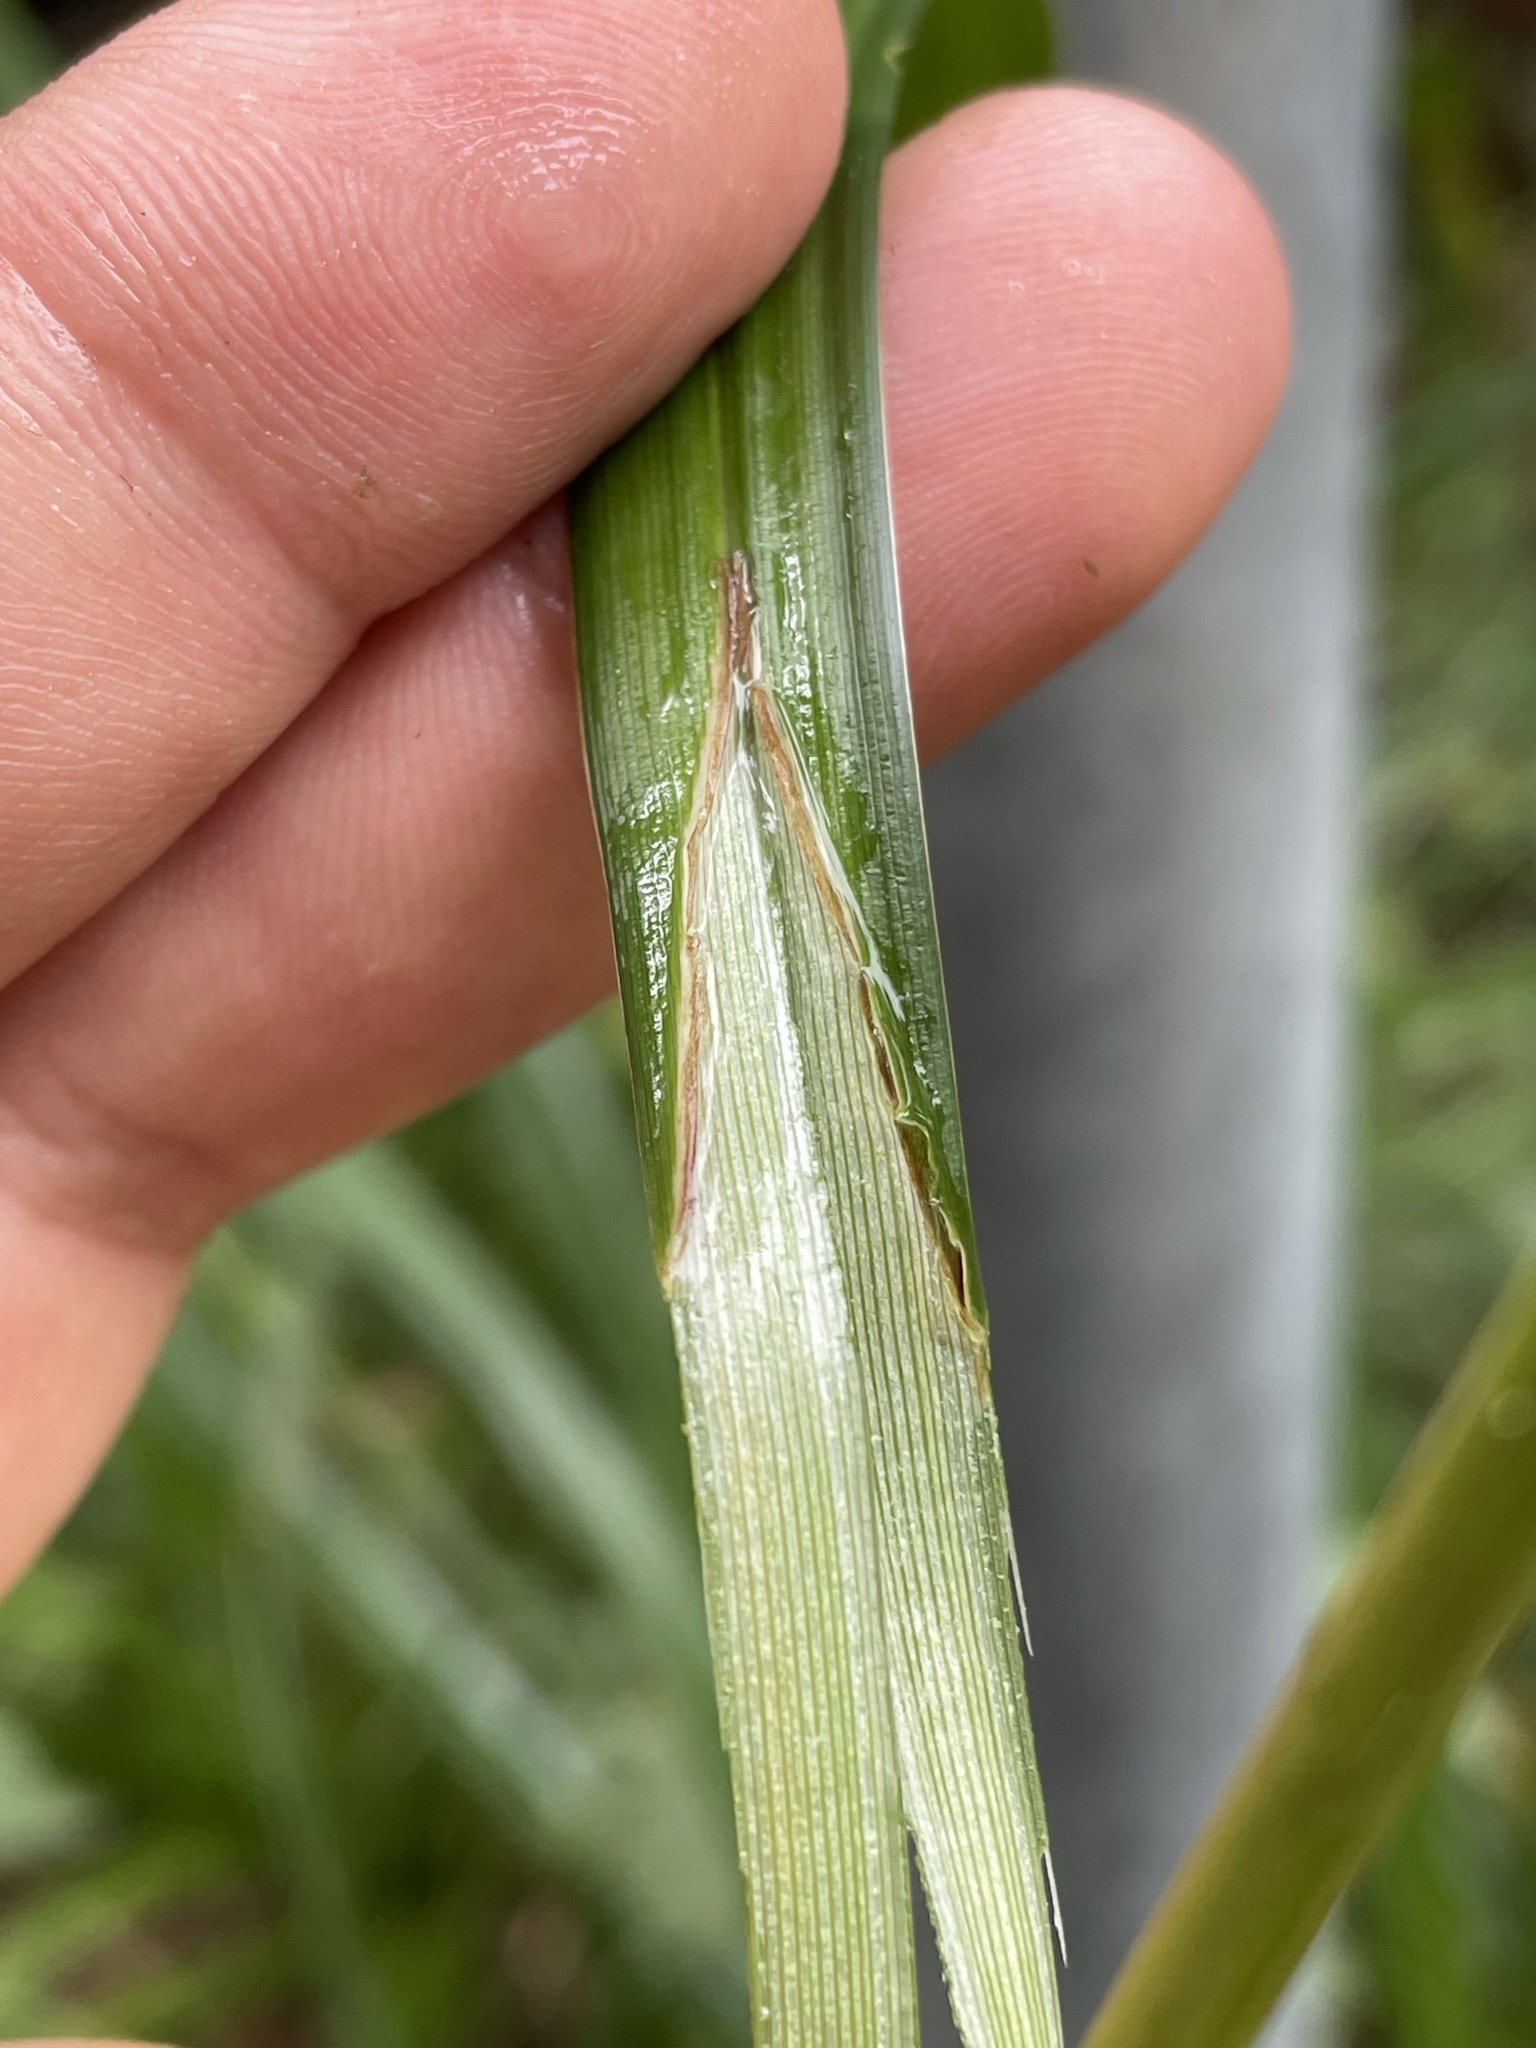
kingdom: Plantae
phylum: Tracheophyta
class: Liliopsida
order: Poales
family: Cyperaceae
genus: Carex
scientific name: Carex agastachys
